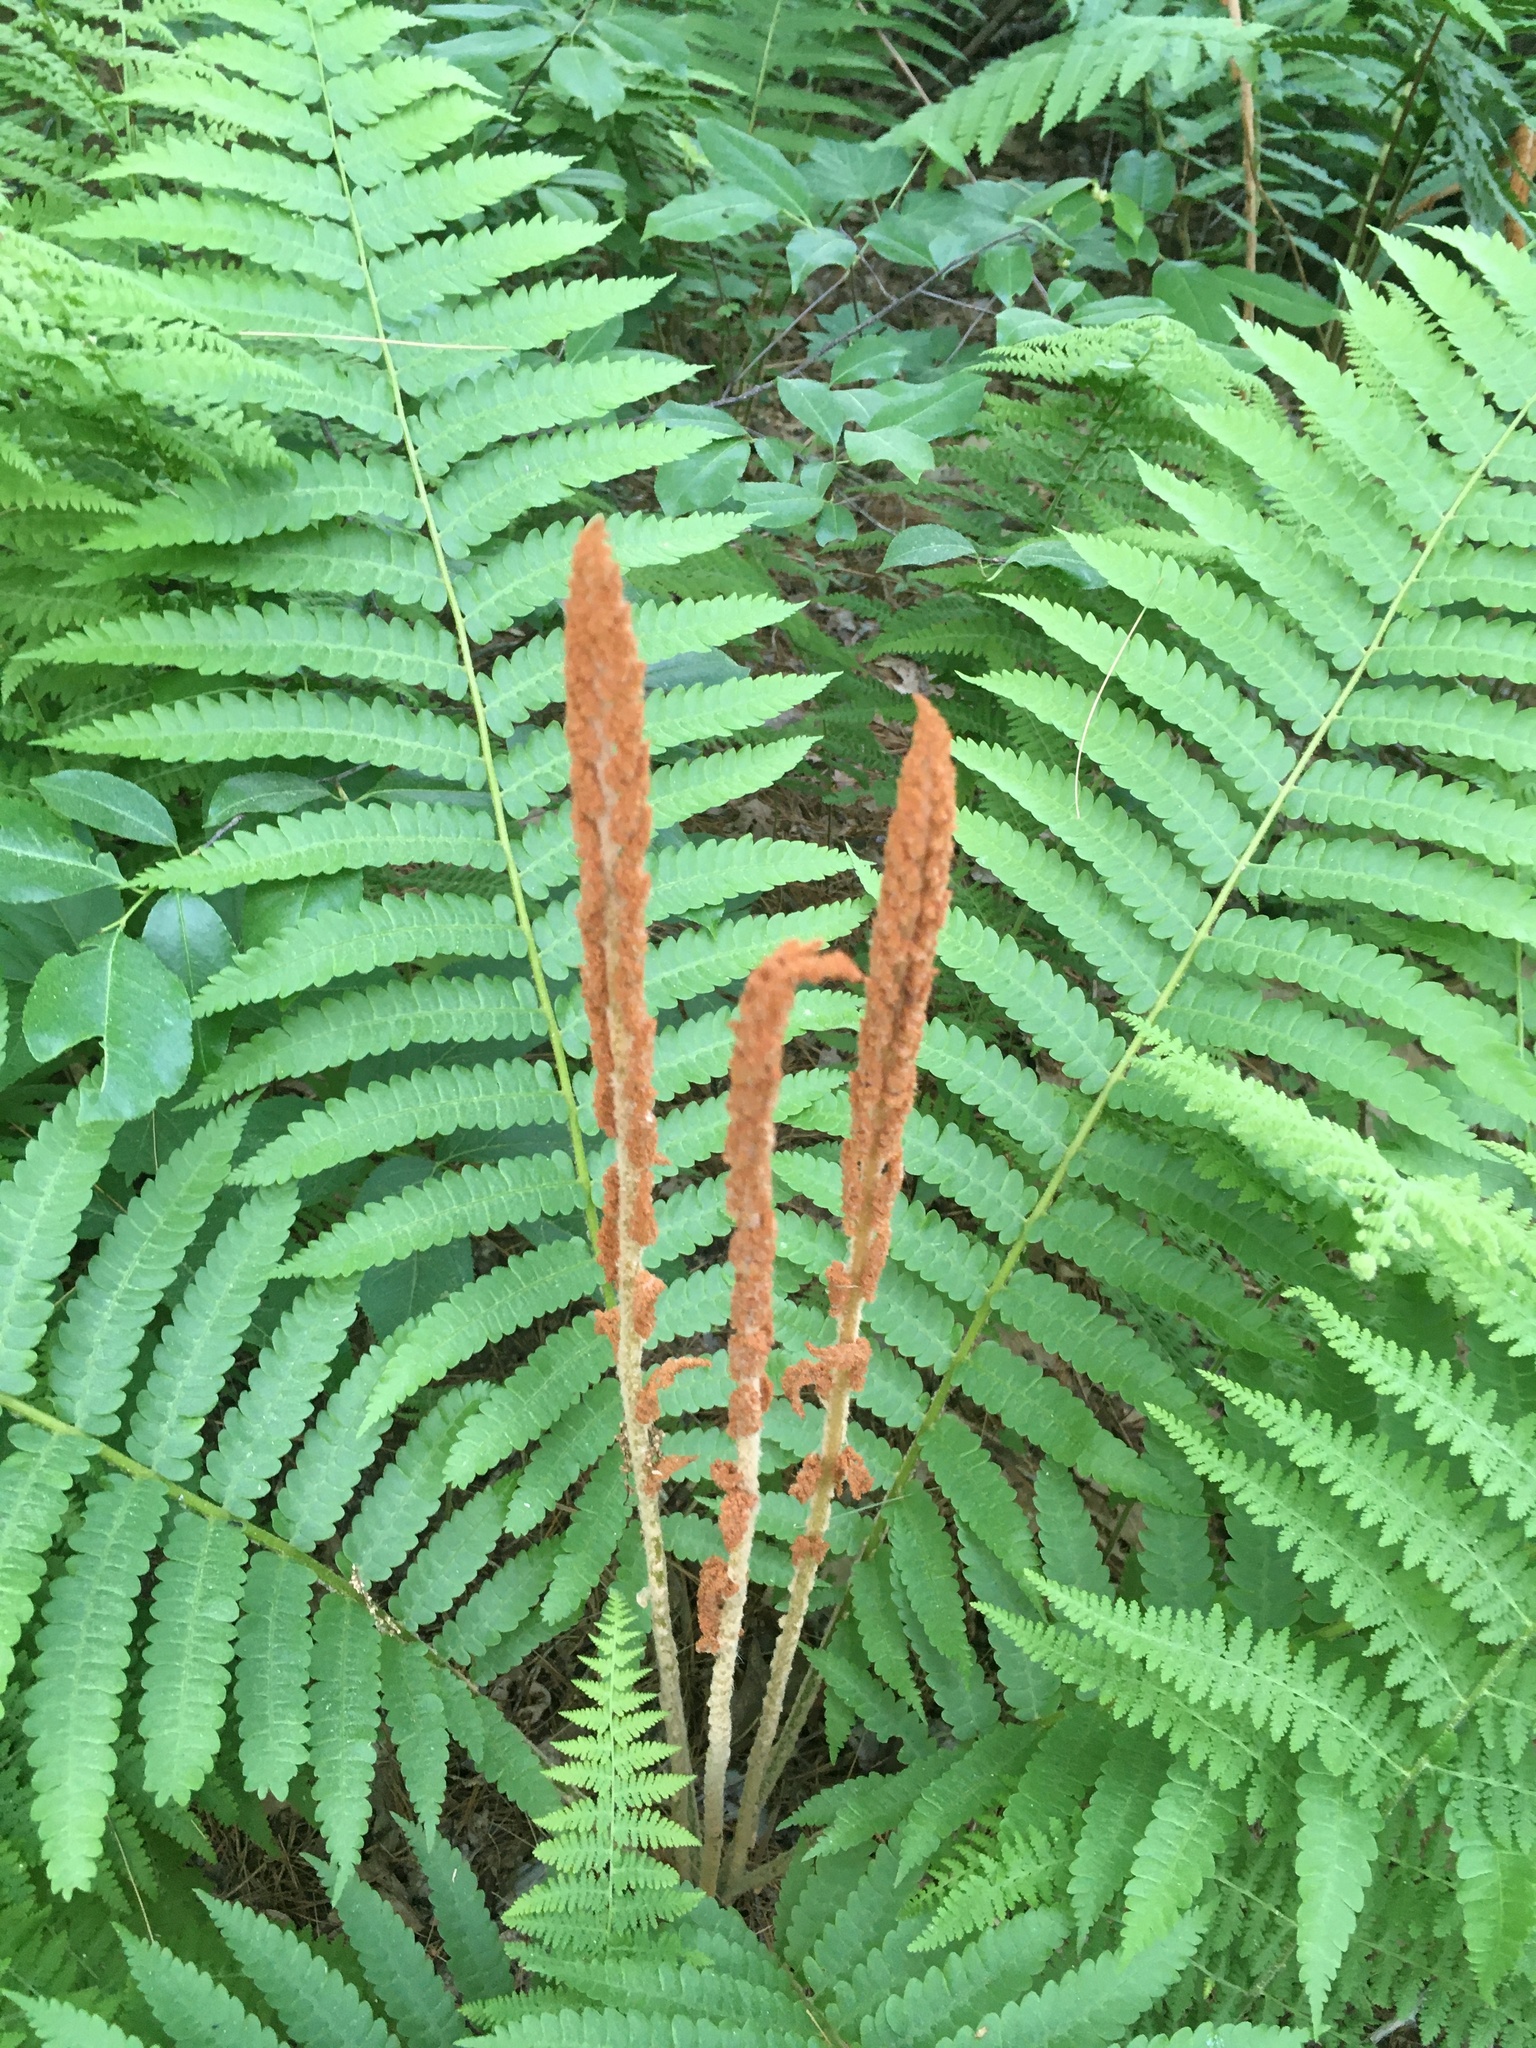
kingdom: Plantae
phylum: Tracheophyta
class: Polypodiopsida
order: Osmundales
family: Osmundaceae
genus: Osmundastrum
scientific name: Osmundastrum cinnamomeum
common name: Cinnamon fern
